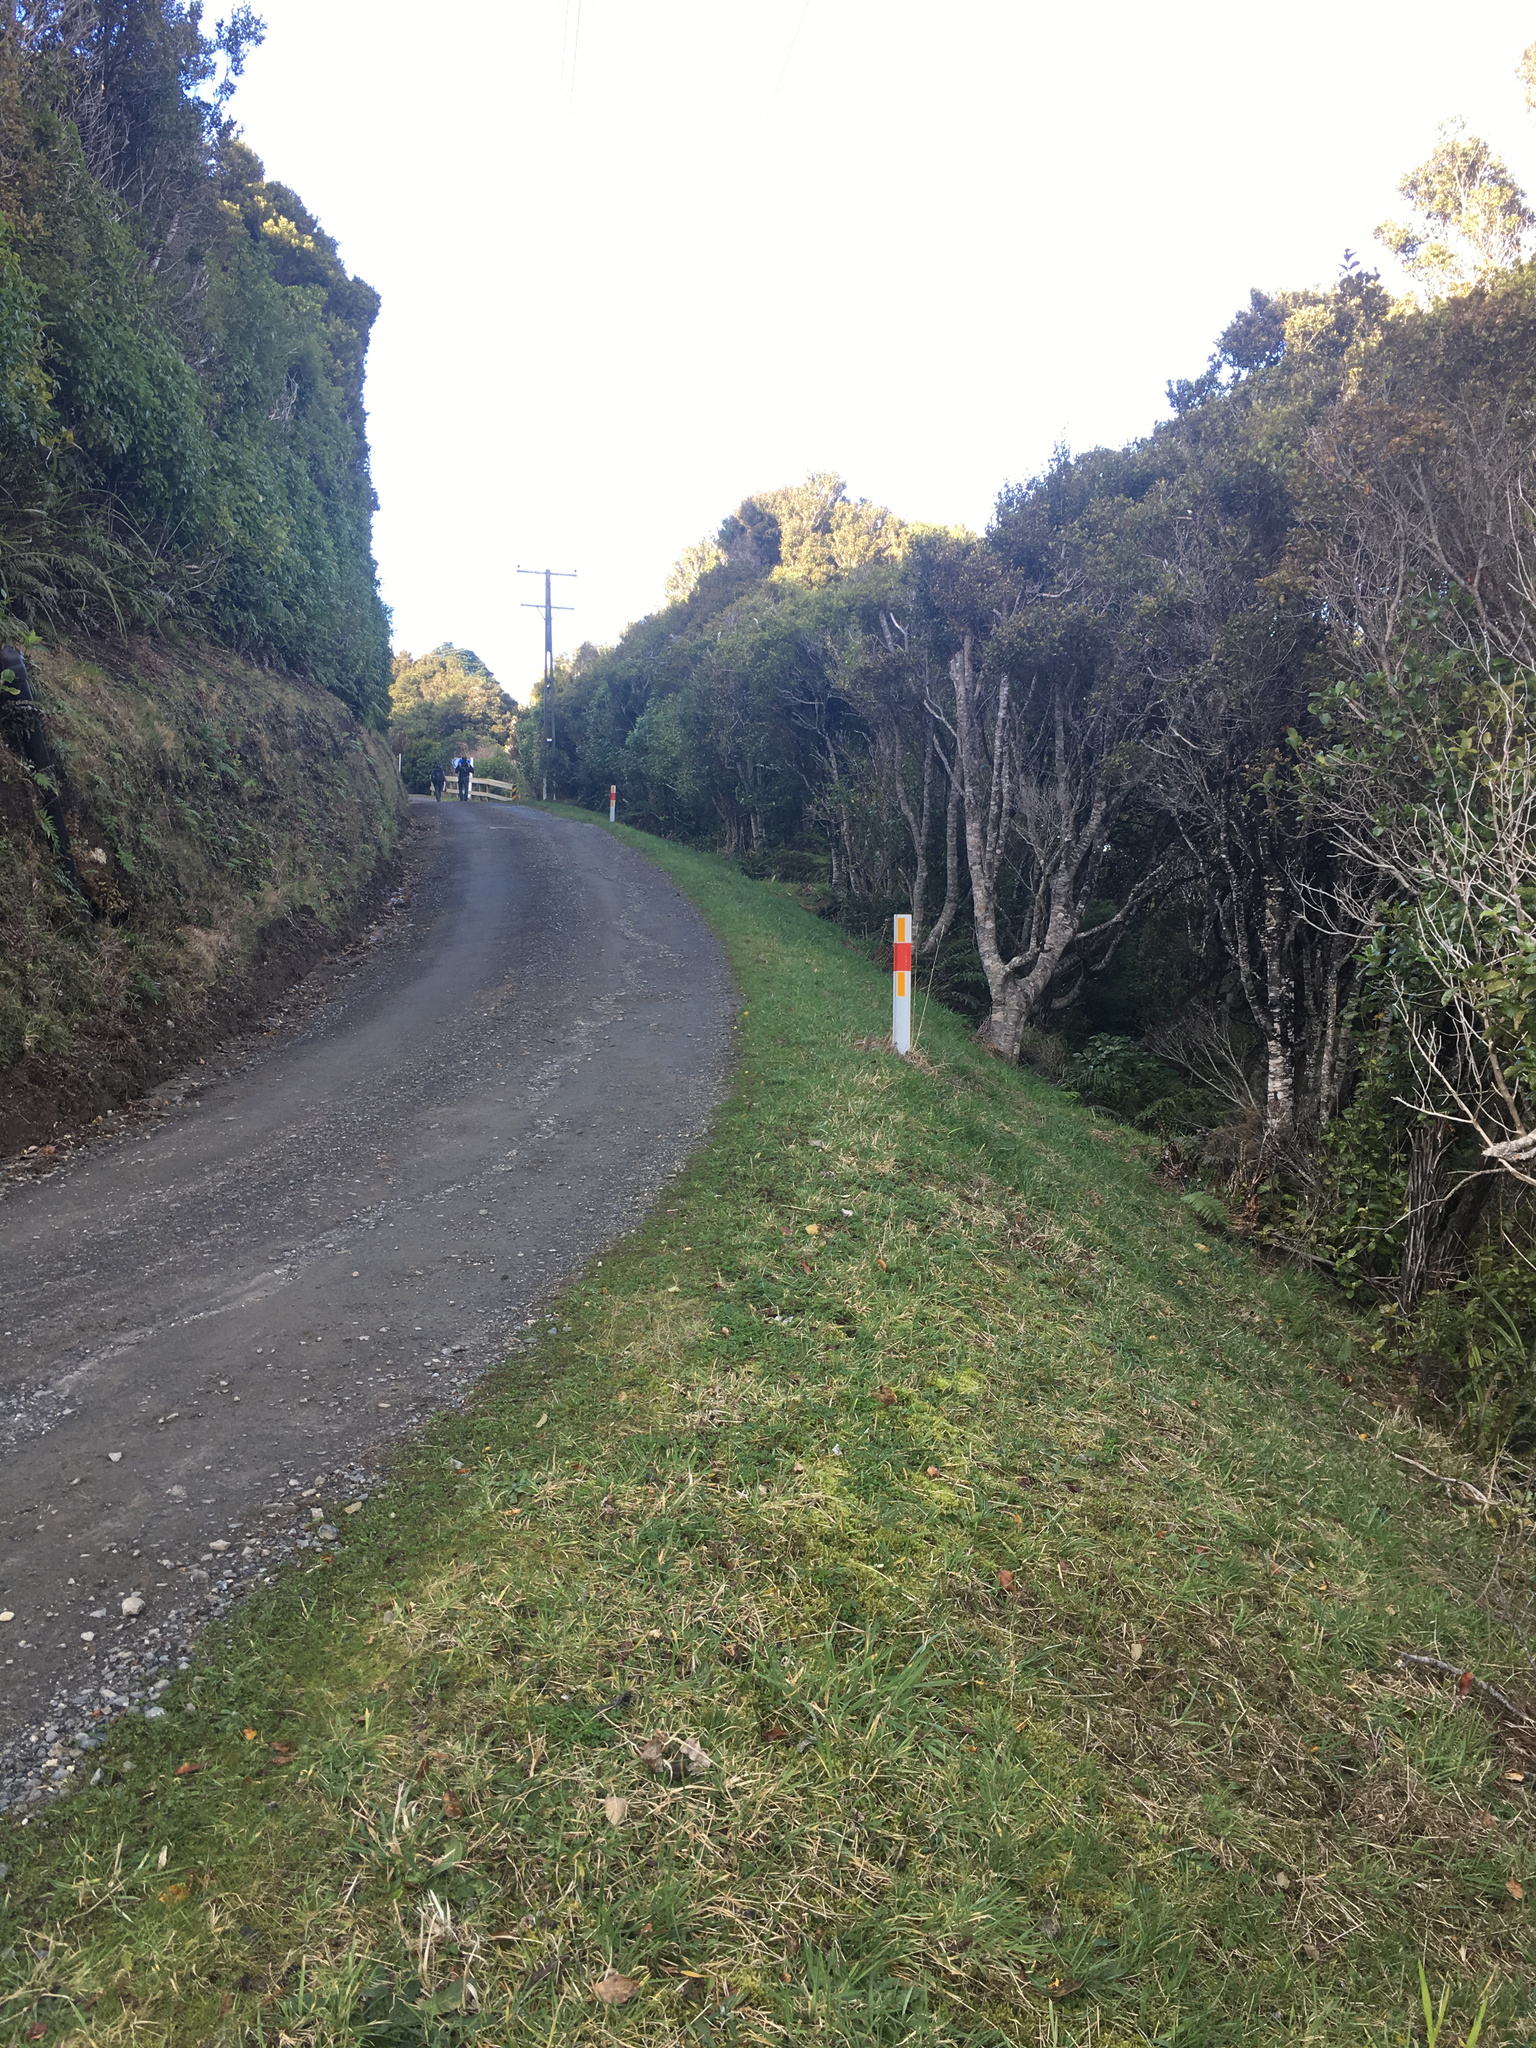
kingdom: Plantae
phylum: Tracheophyta
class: Liliopsida
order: Asparagales
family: Amaryllidaceae
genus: Allium
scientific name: Allium triquetrum
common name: Three-cornered garlic
